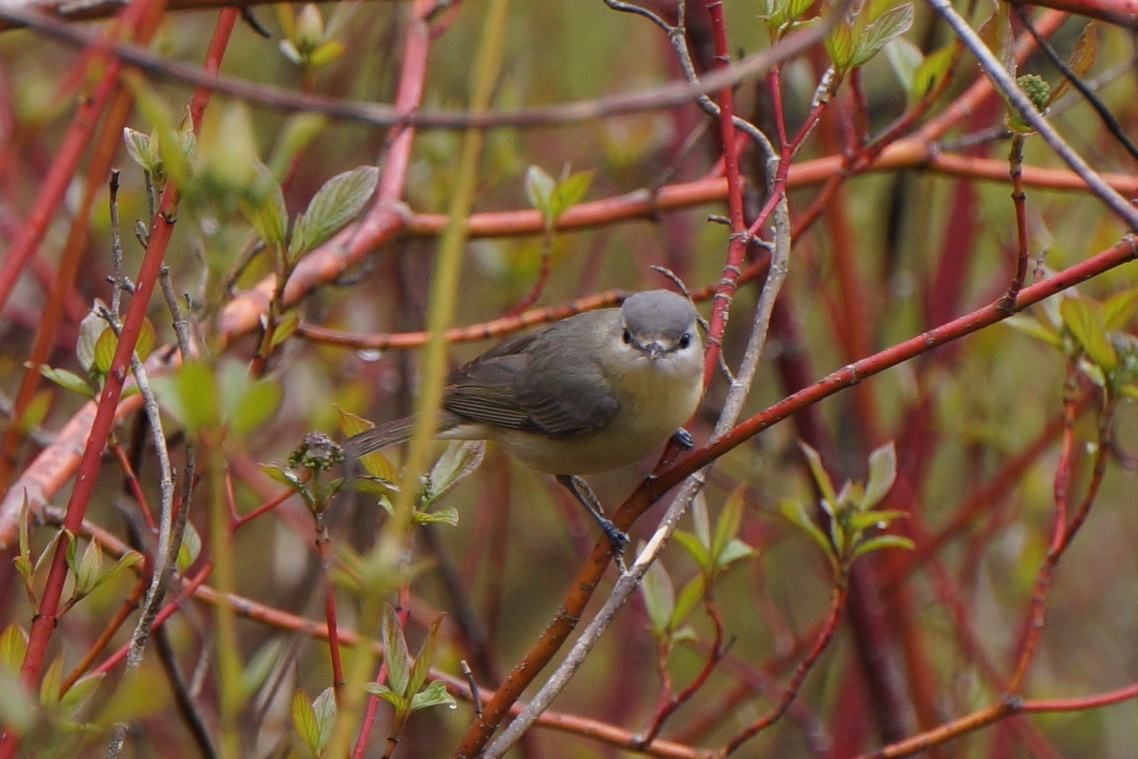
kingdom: Animalia
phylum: Chordata
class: Aves
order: Passeriformes
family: Vireonidae
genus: Vireo
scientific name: Vireo philadelphicus
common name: Philadelphia vireo
